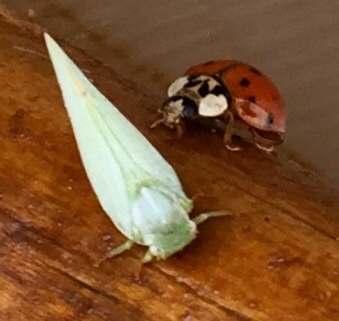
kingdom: Animalia
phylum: Arthropoda
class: Insecta
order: Hemiptera
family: Flatidae
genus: Flatormenis
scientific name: Flatormenis proxima
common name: Northern flatid planthopper
